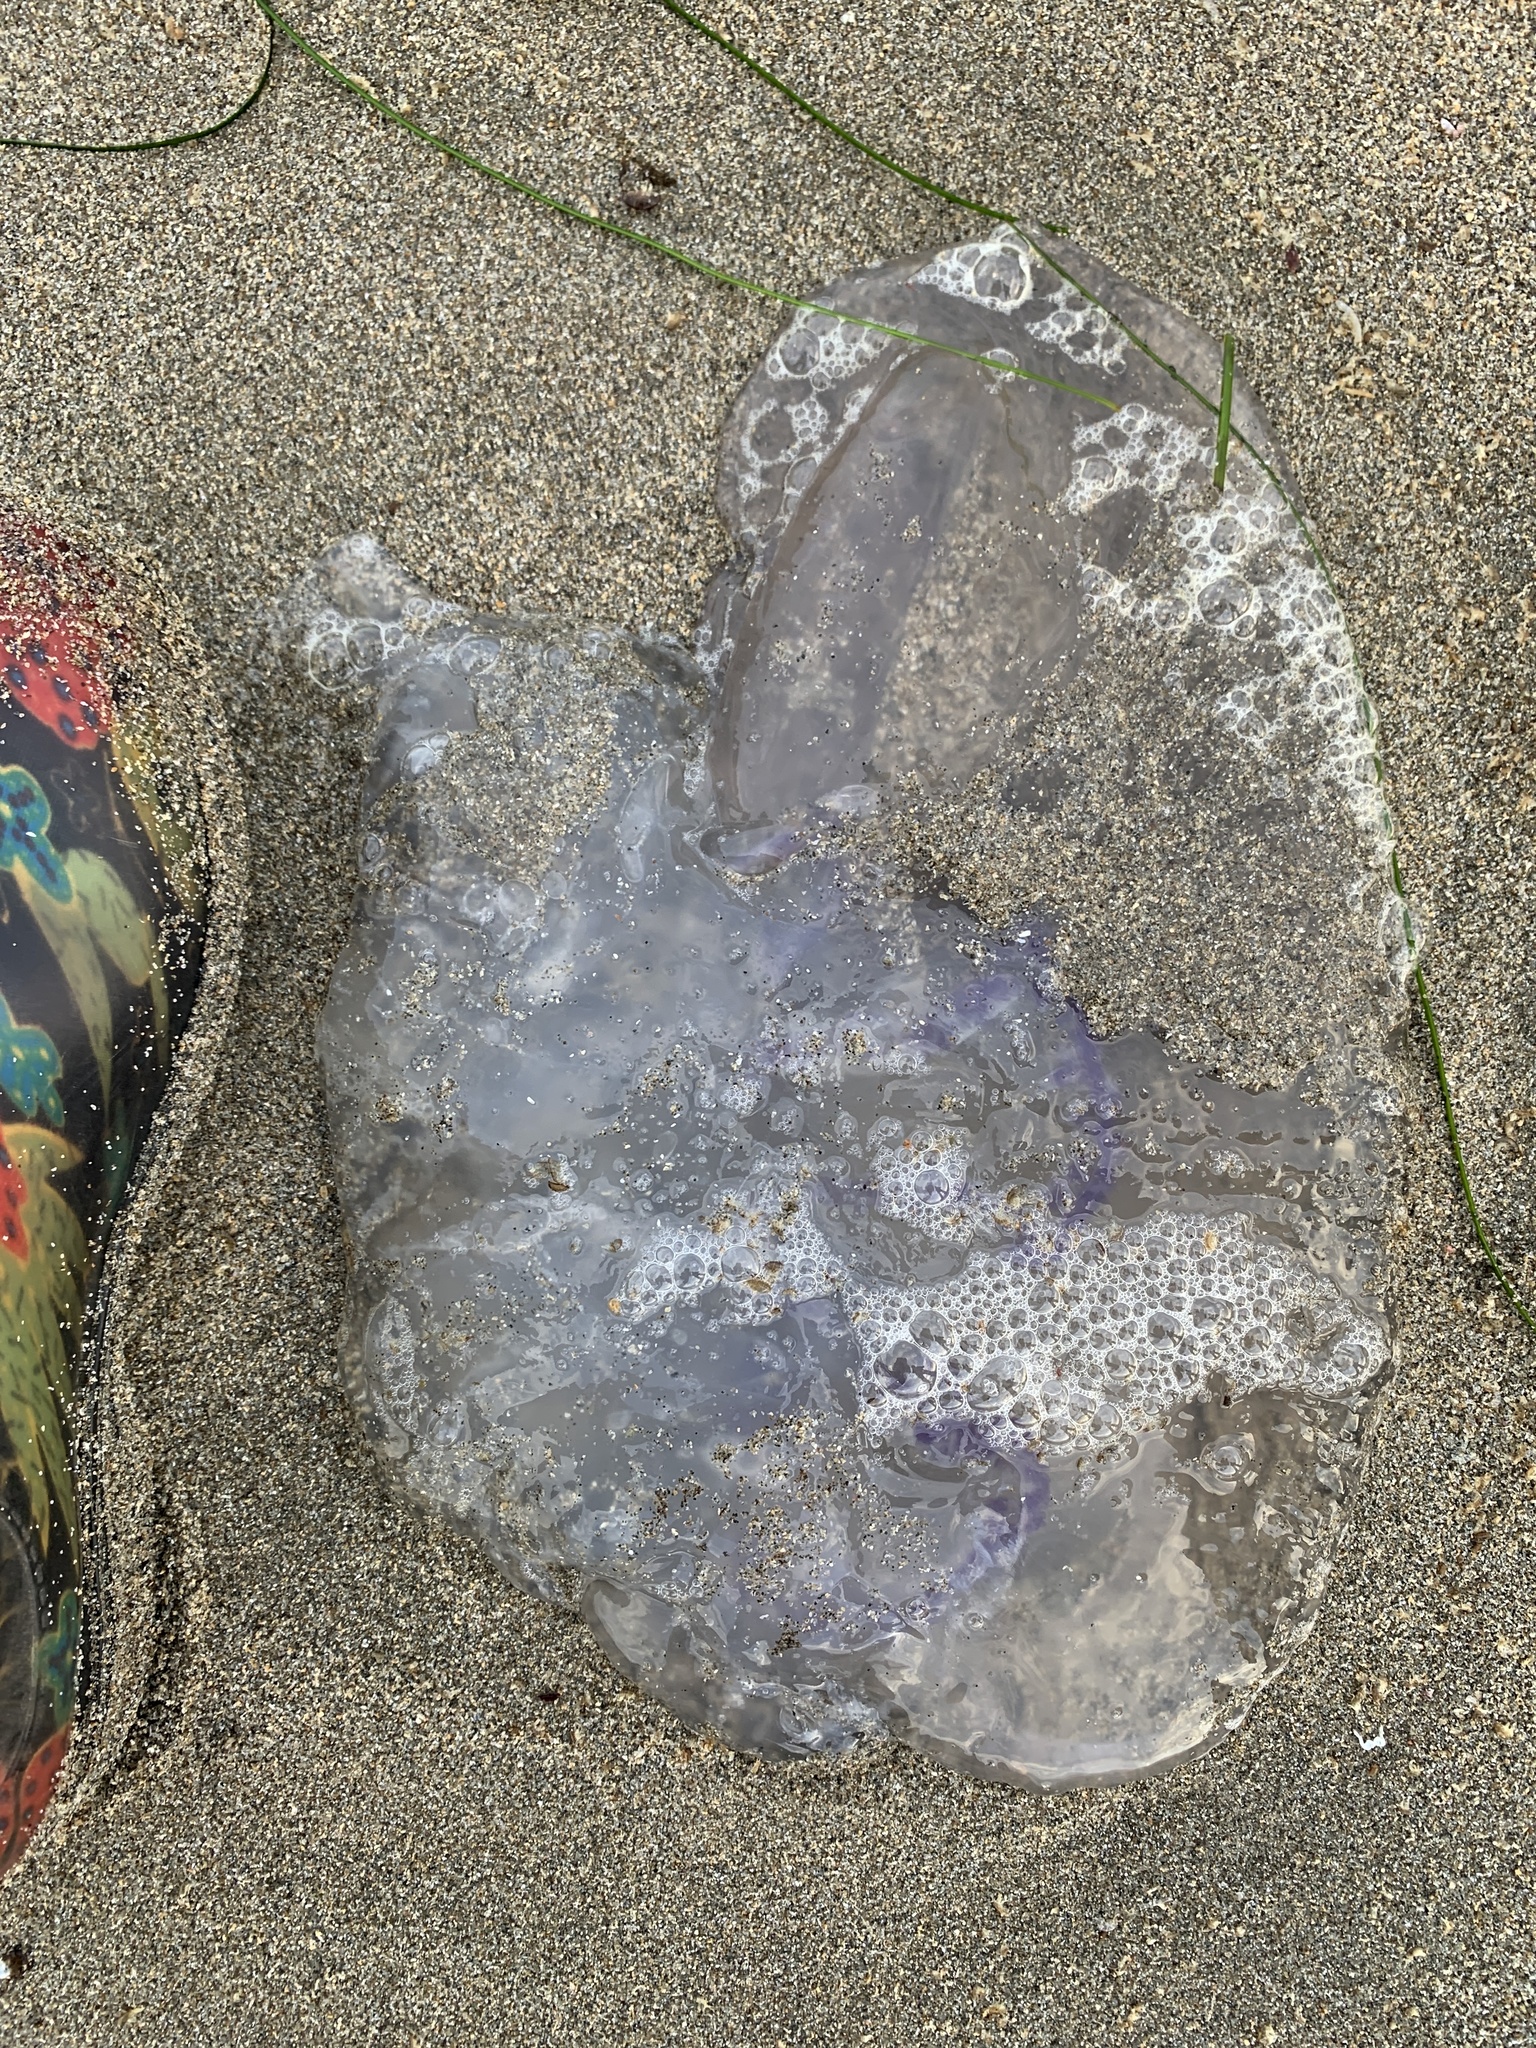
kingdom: Animalia
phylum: Cnidaria
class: Scyphozoa
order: Semaeostomeae
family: Ulmaridae
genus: Aurelia
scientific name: Aurelia labiata
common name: Pacific moon jelly
